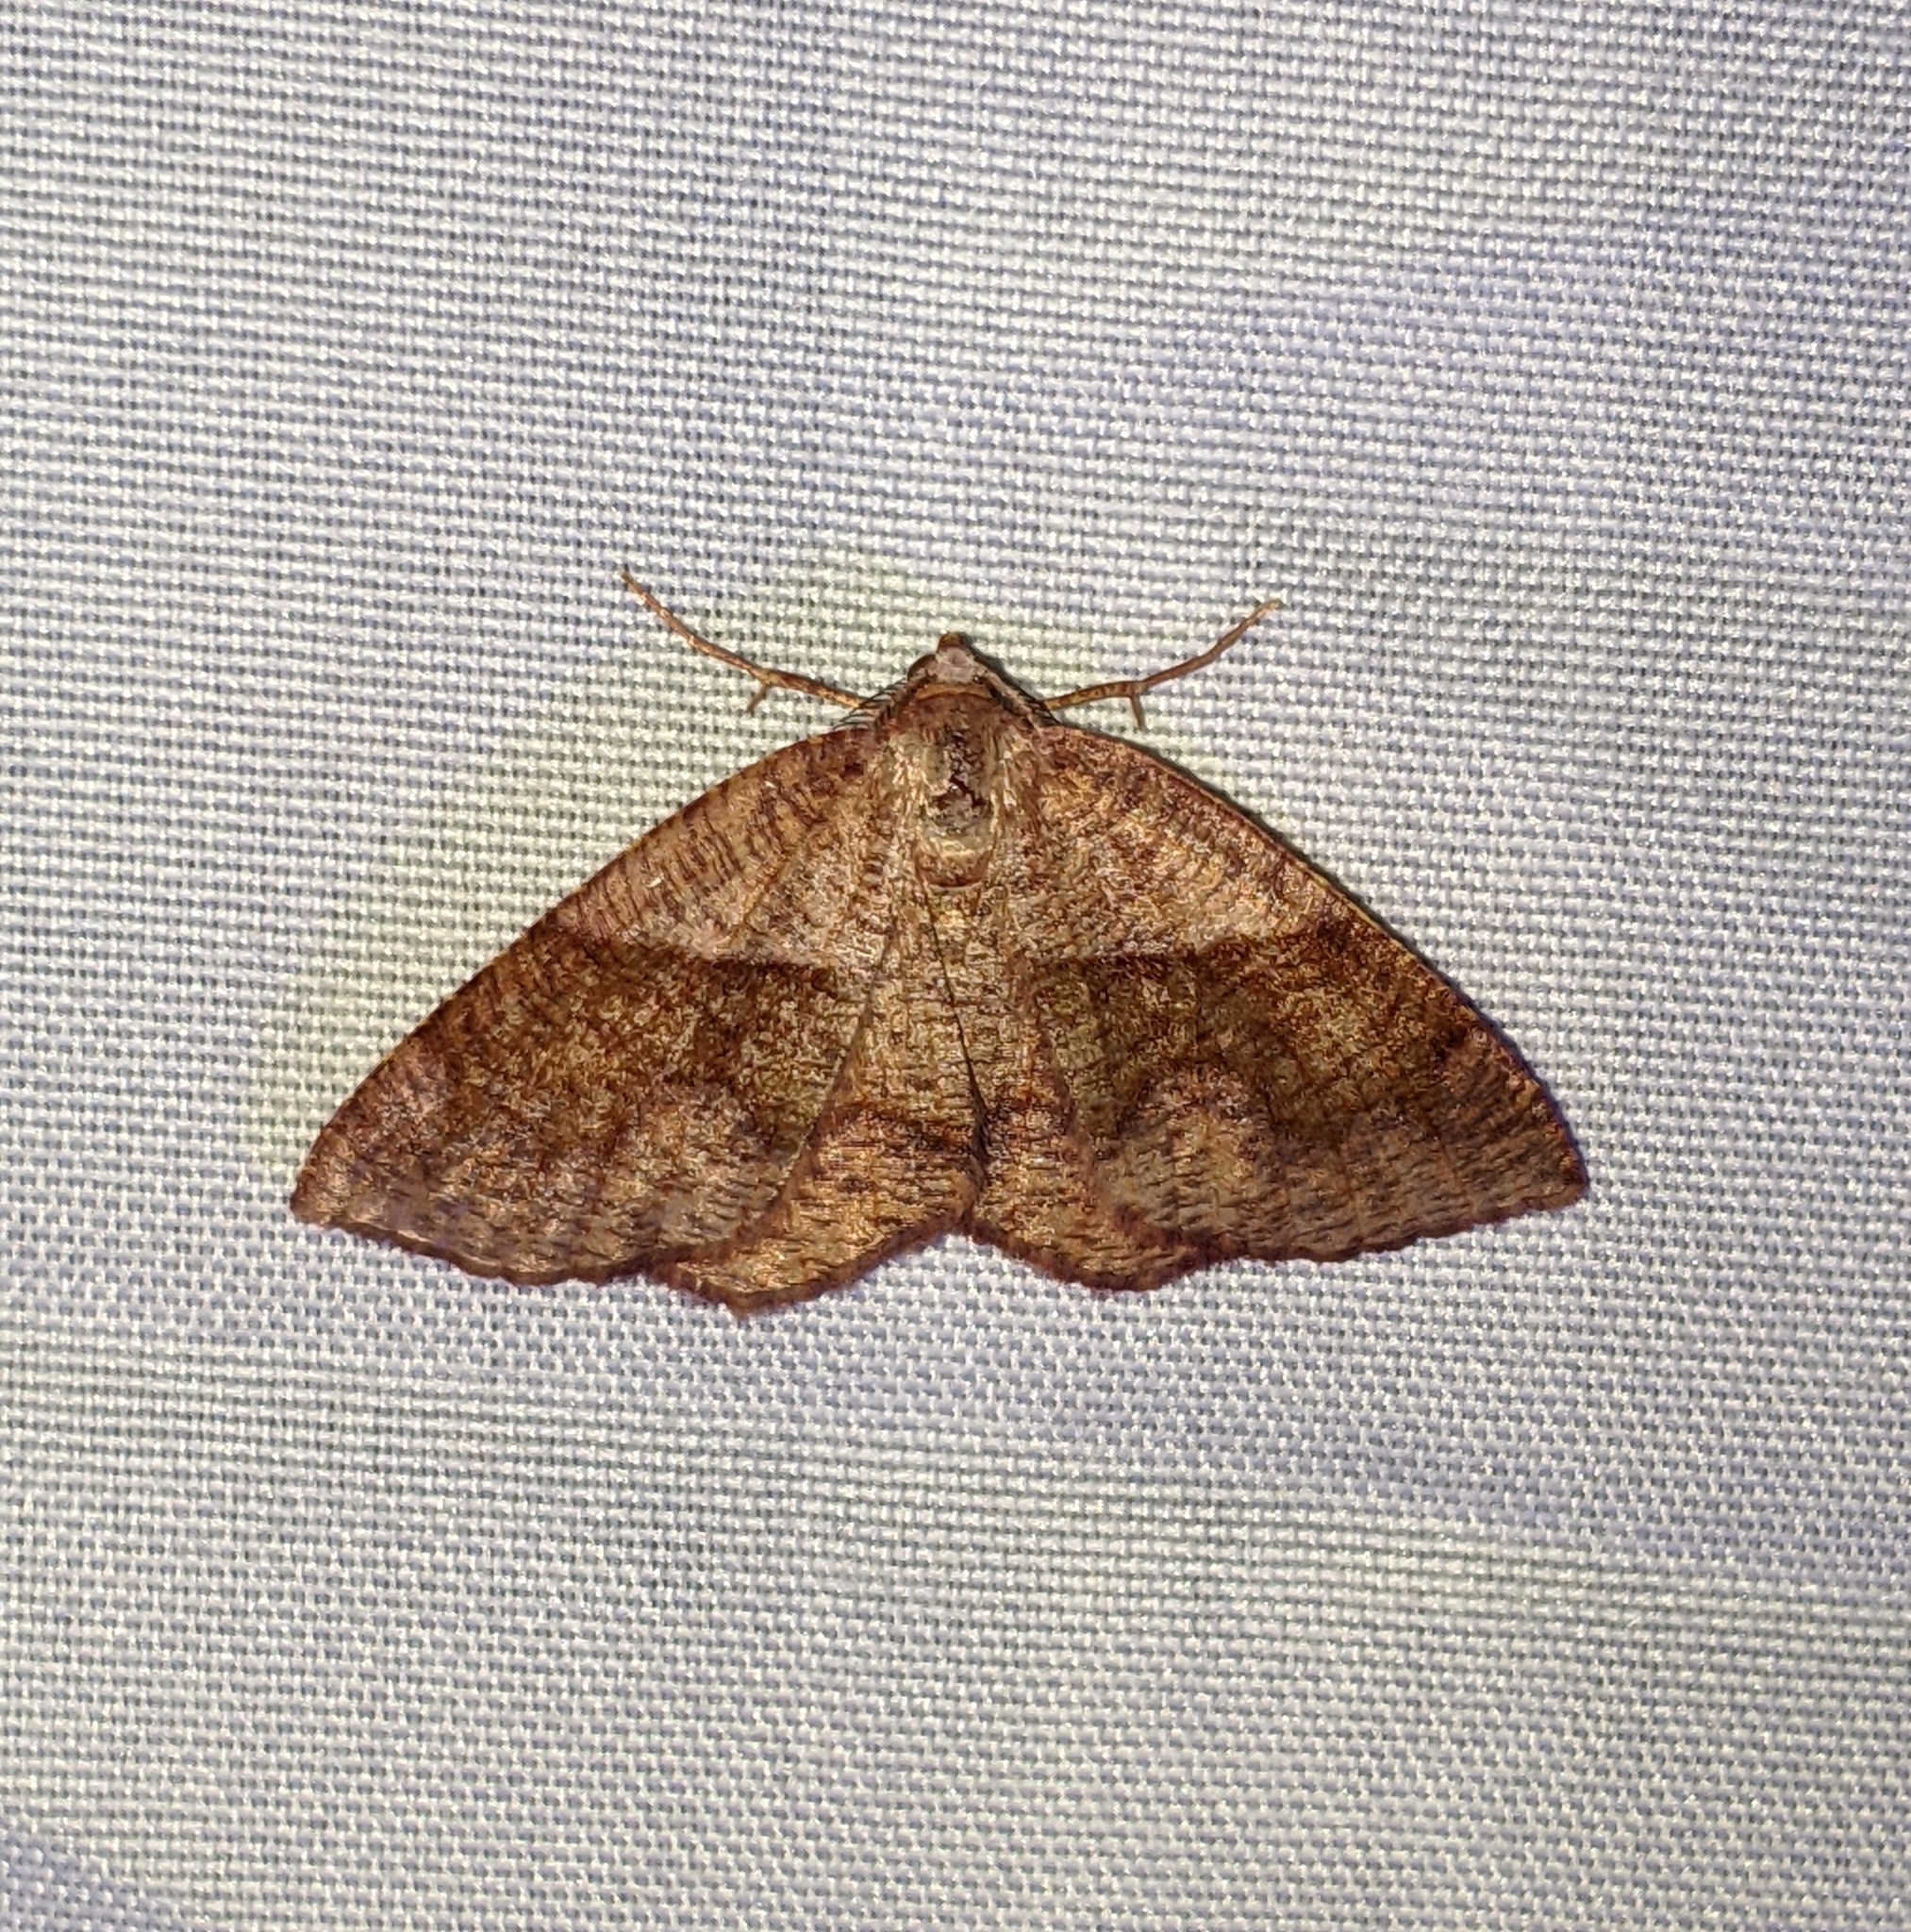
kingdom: Animalia
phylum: Arthropoda
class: Insecta
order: Lepidoptera
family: Geometridae
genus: Plagodis
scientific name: Plagodis pulveraria
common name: Barred umber
